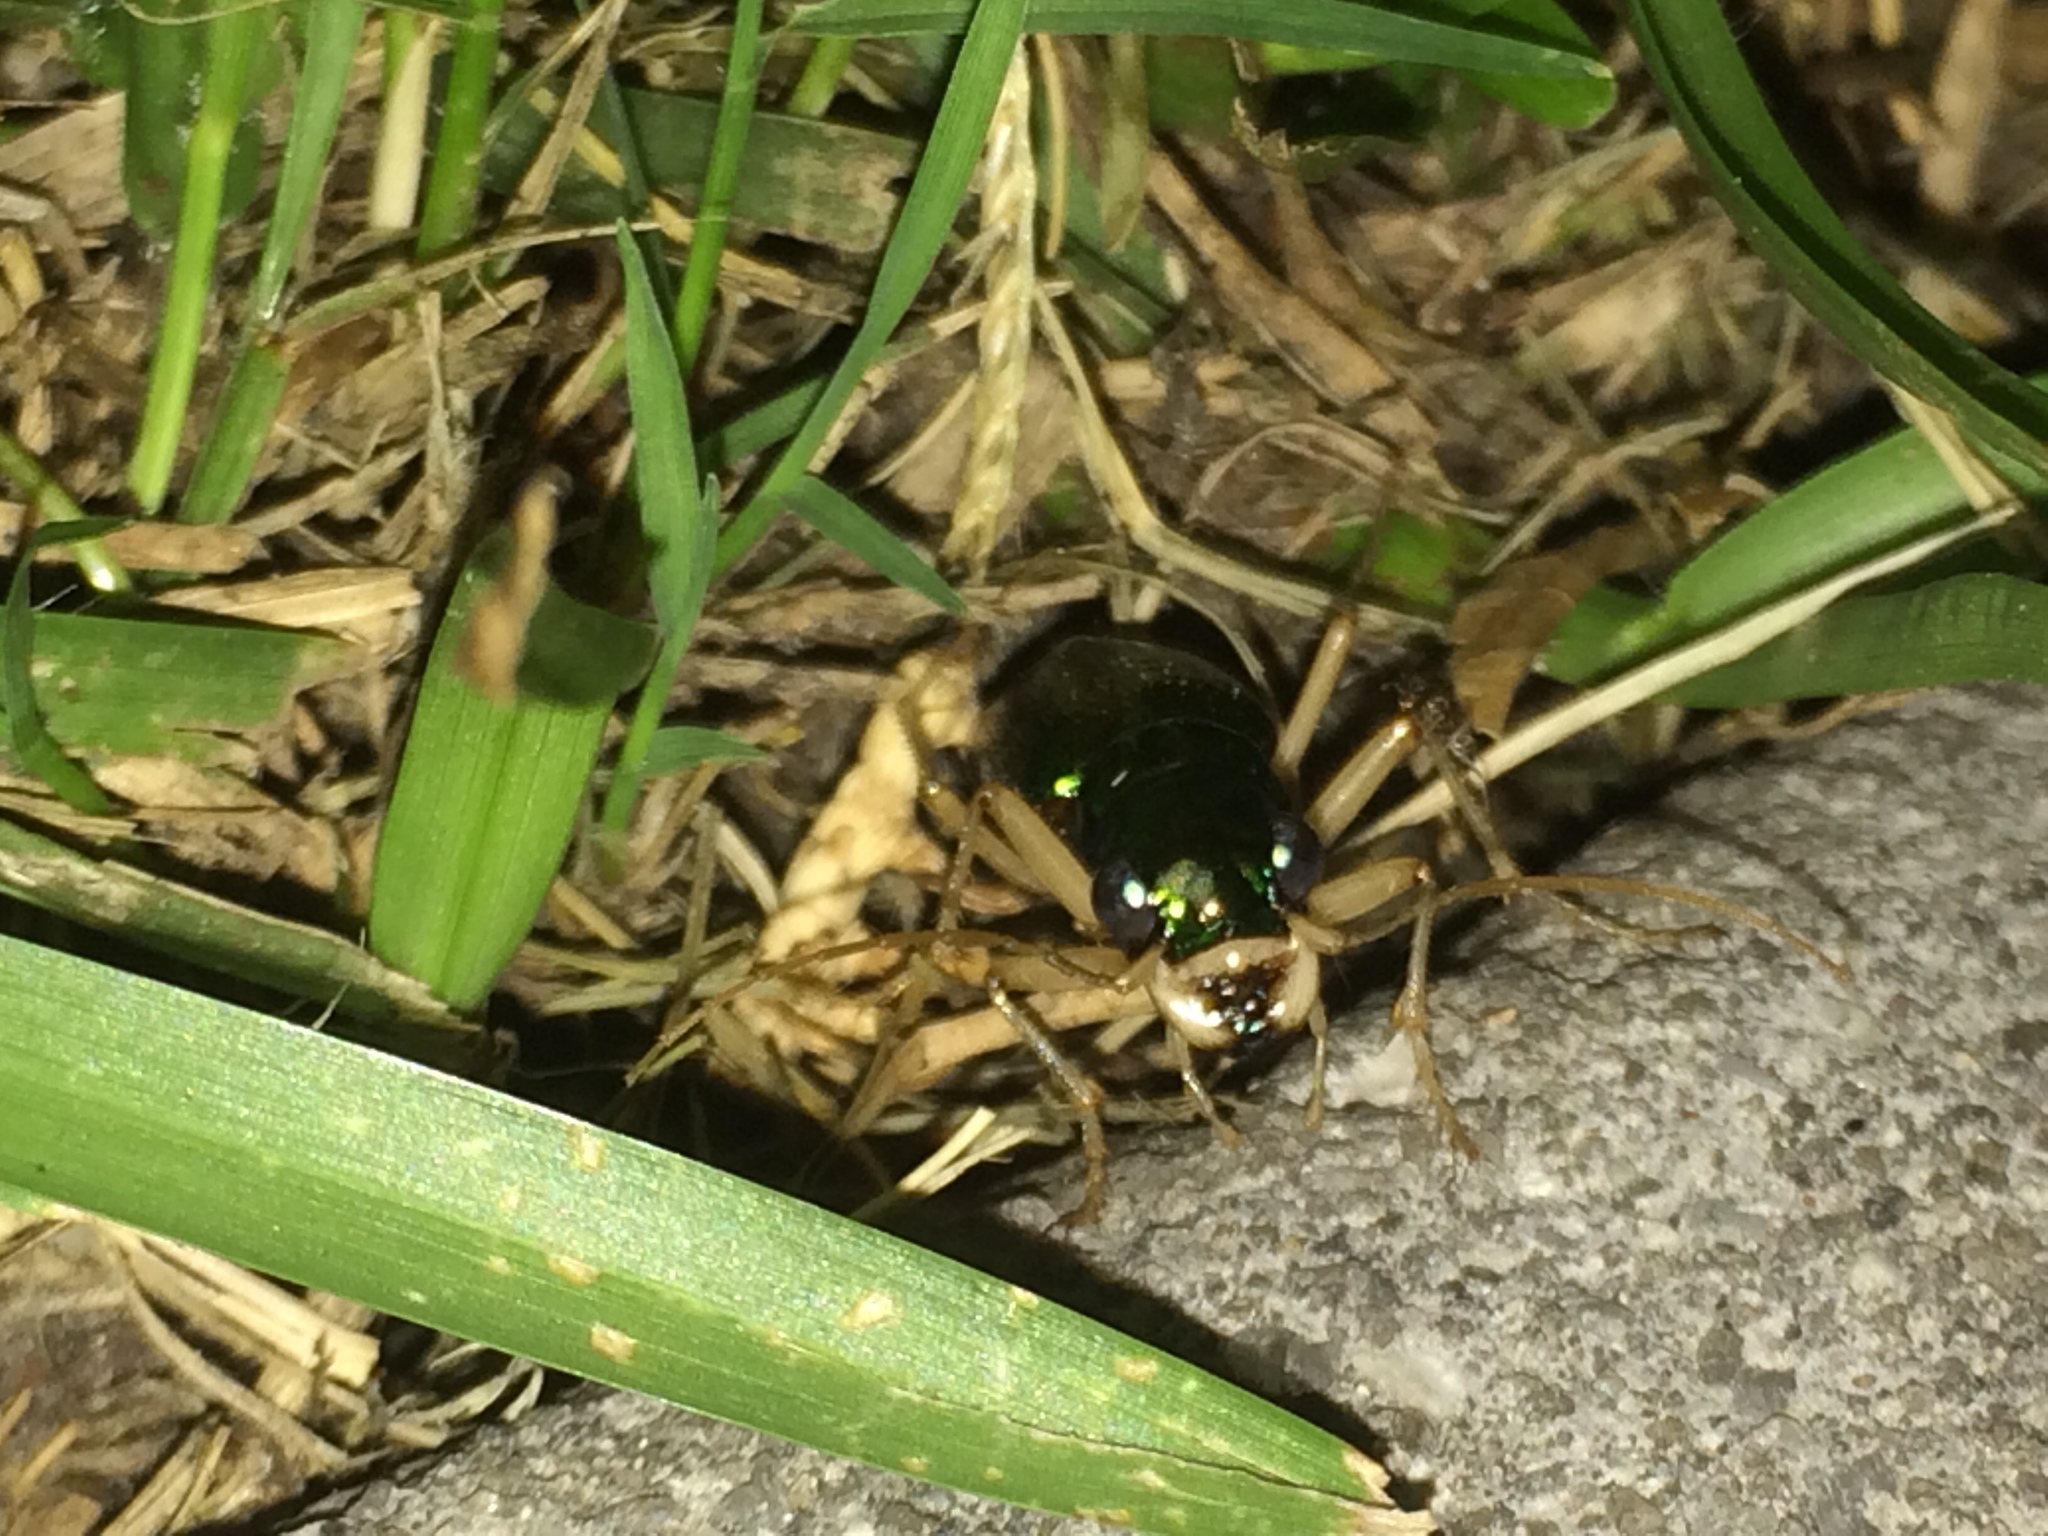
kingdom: Animalia
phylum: Arthropoda
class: Insecta
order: Coleoptera
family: Carabidae
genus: Tetracha
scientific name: Tetracha carolina
